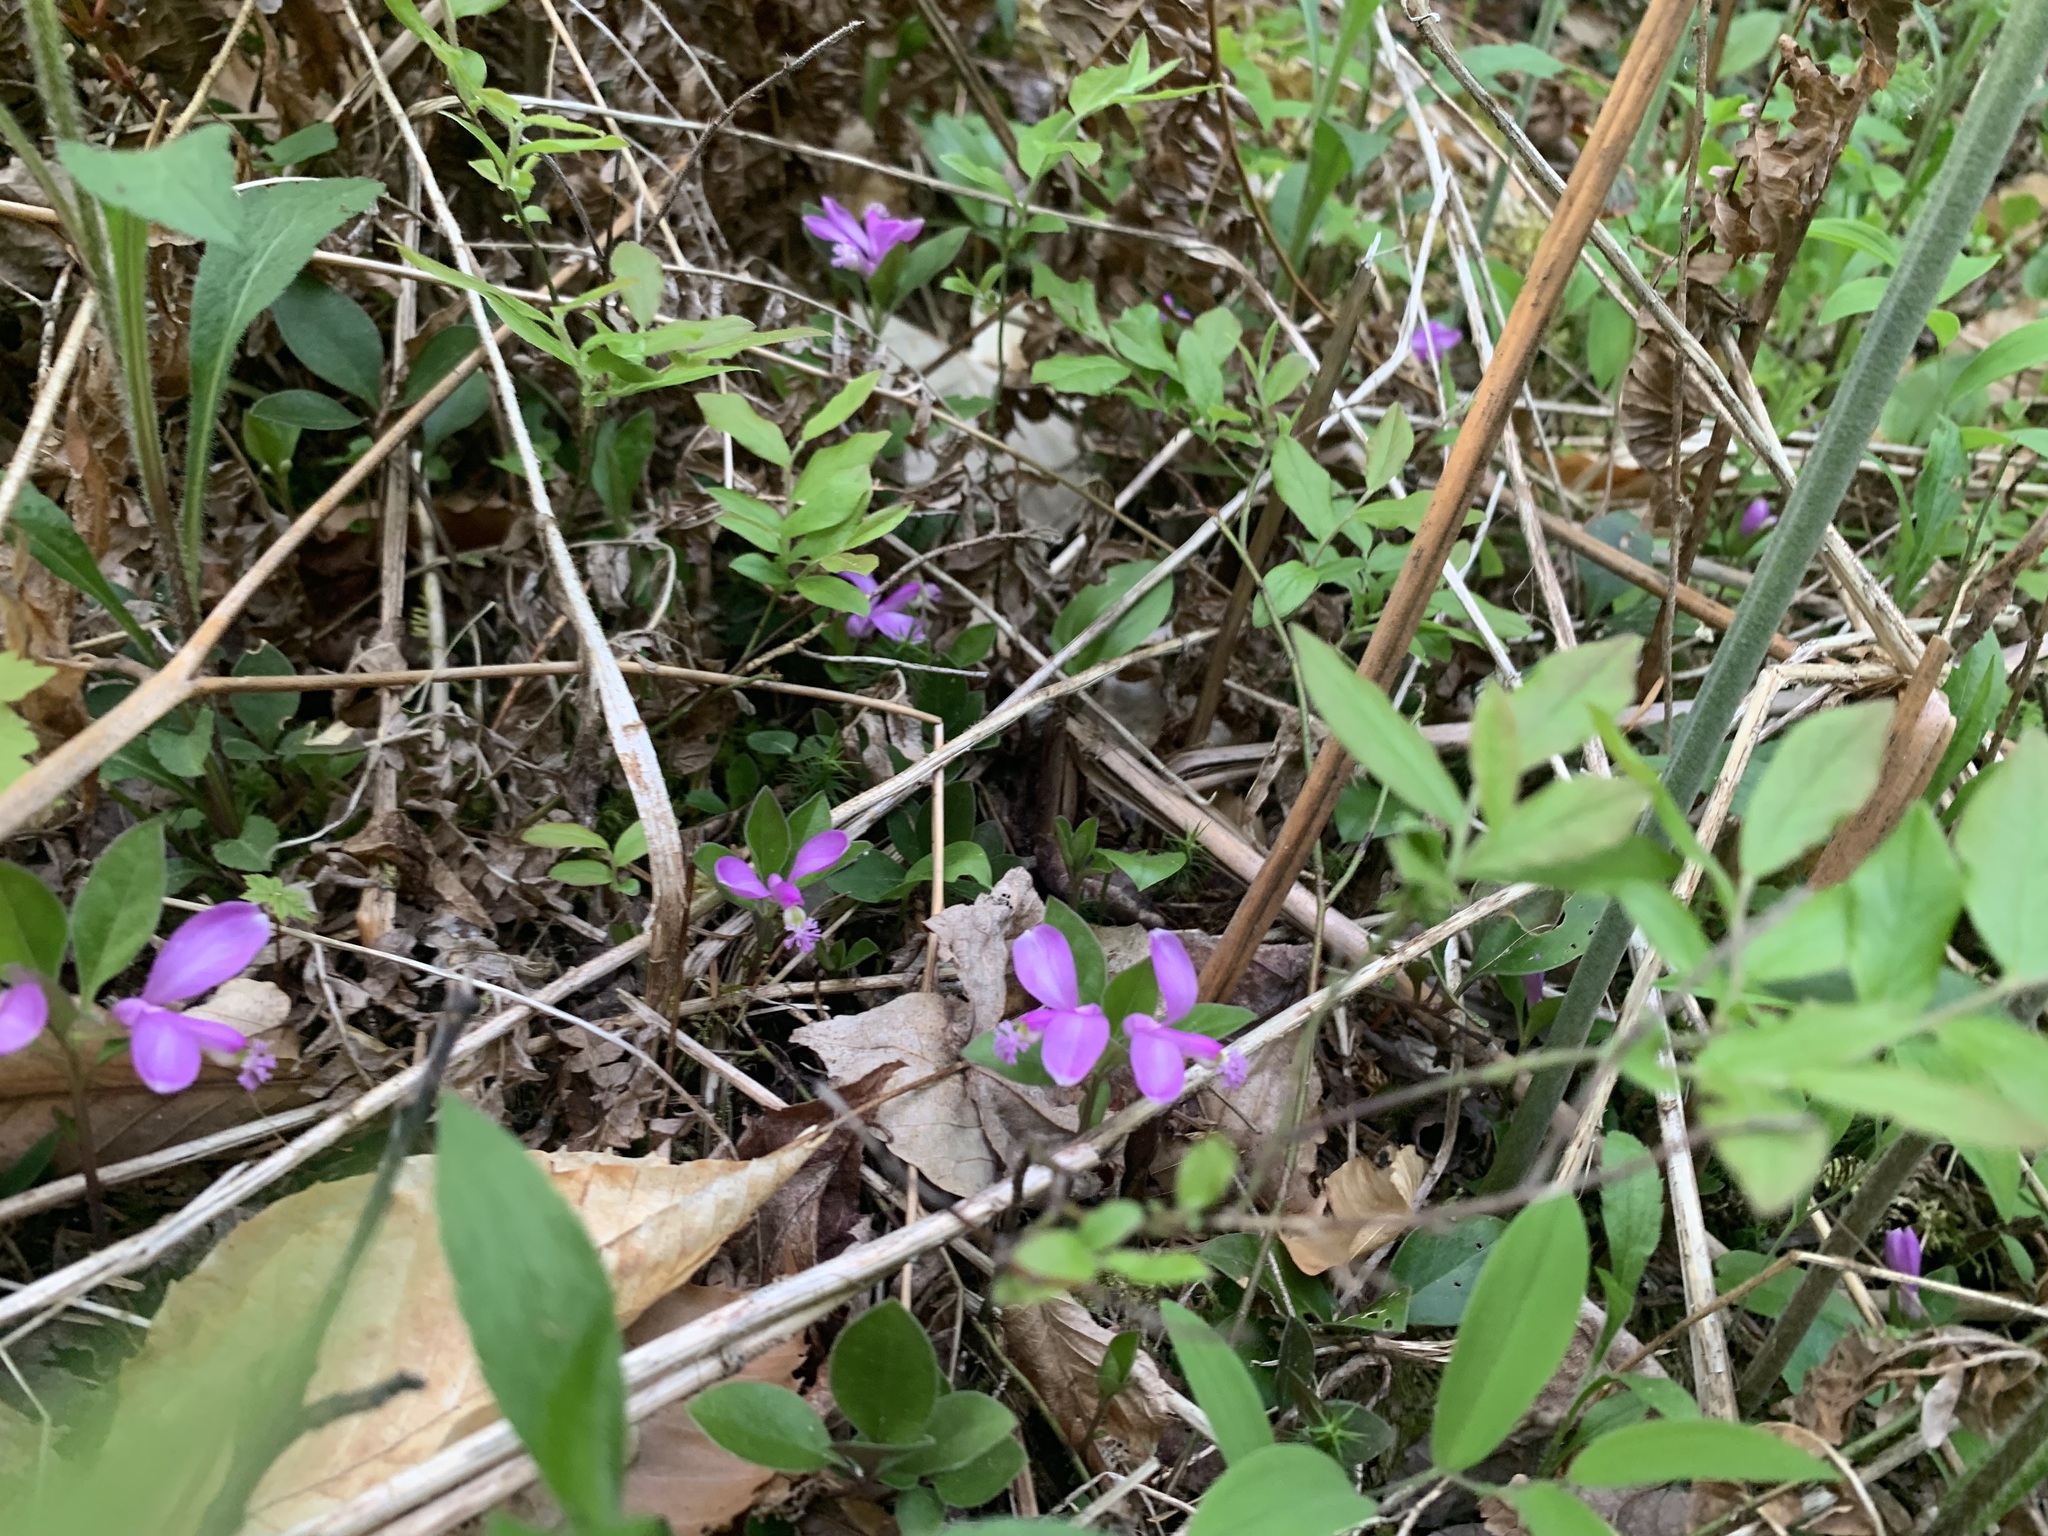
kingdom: Plantae
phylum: Tracheophyta
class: Magnoliopsida
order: Fabales
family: Polygalaceae
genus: Polygaloides
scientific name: Polygaloides paucifolia
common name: Bird-on-the-wing
